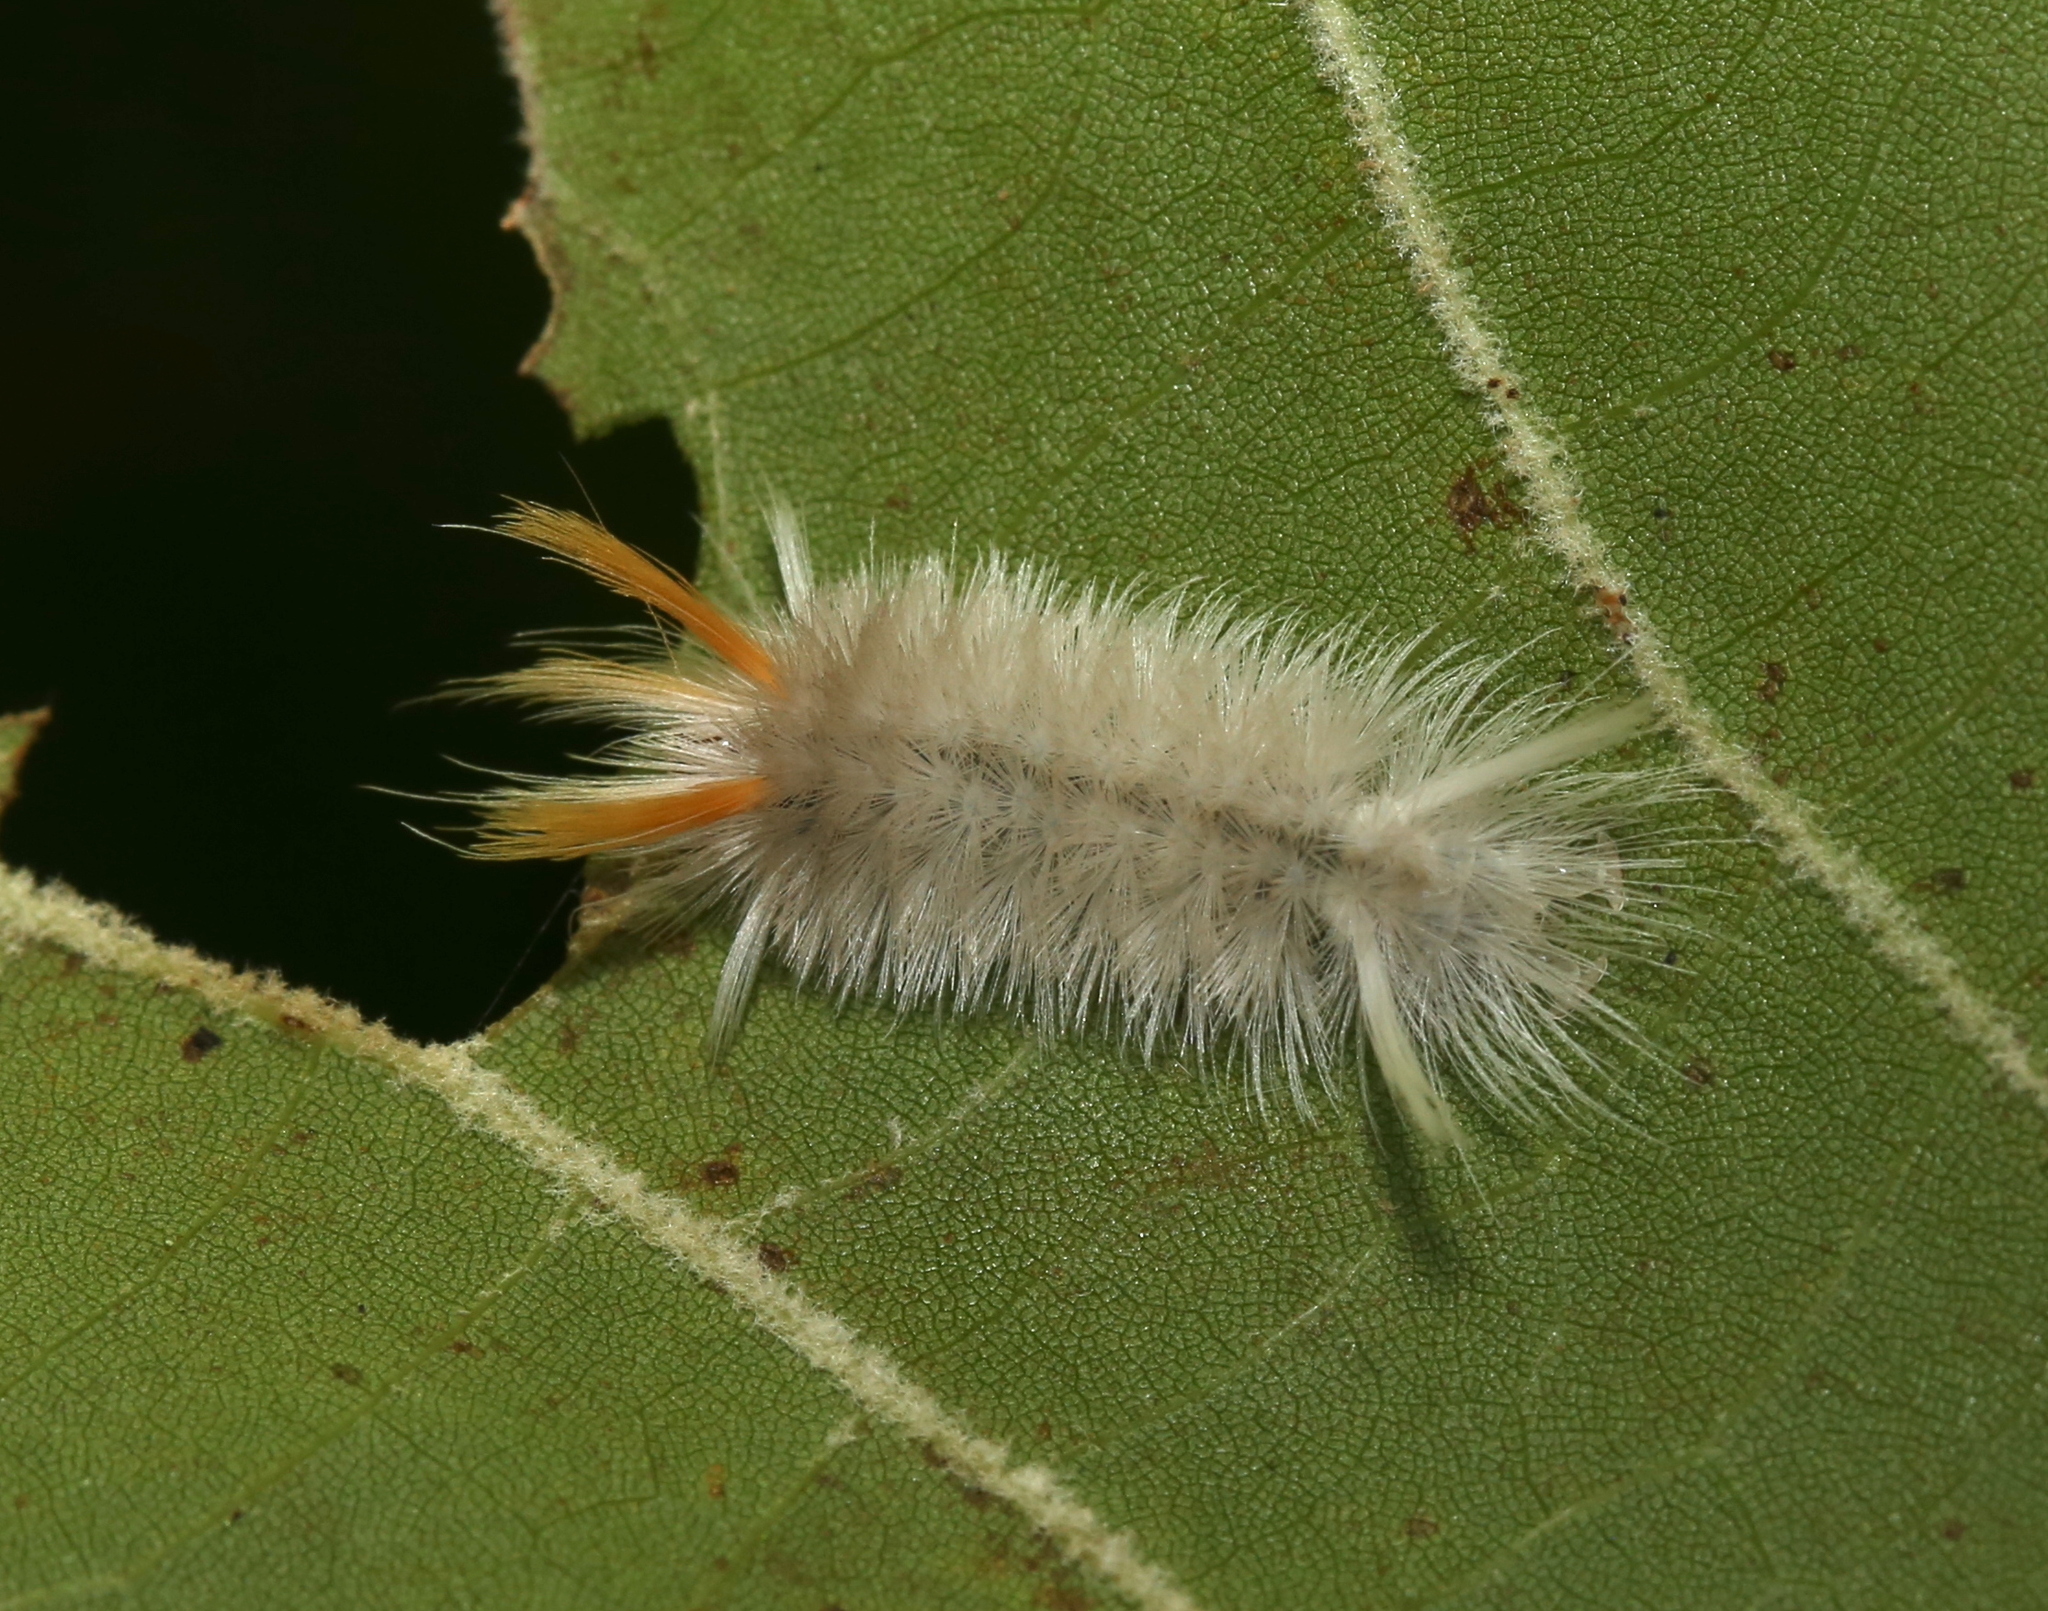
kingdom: Animalia
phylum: Arthropoda
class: Insecta
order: Lepidoptera
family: Erebidae
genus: Halysidota
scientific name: Halysidota harrisii
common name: Sycamore tussock moth
